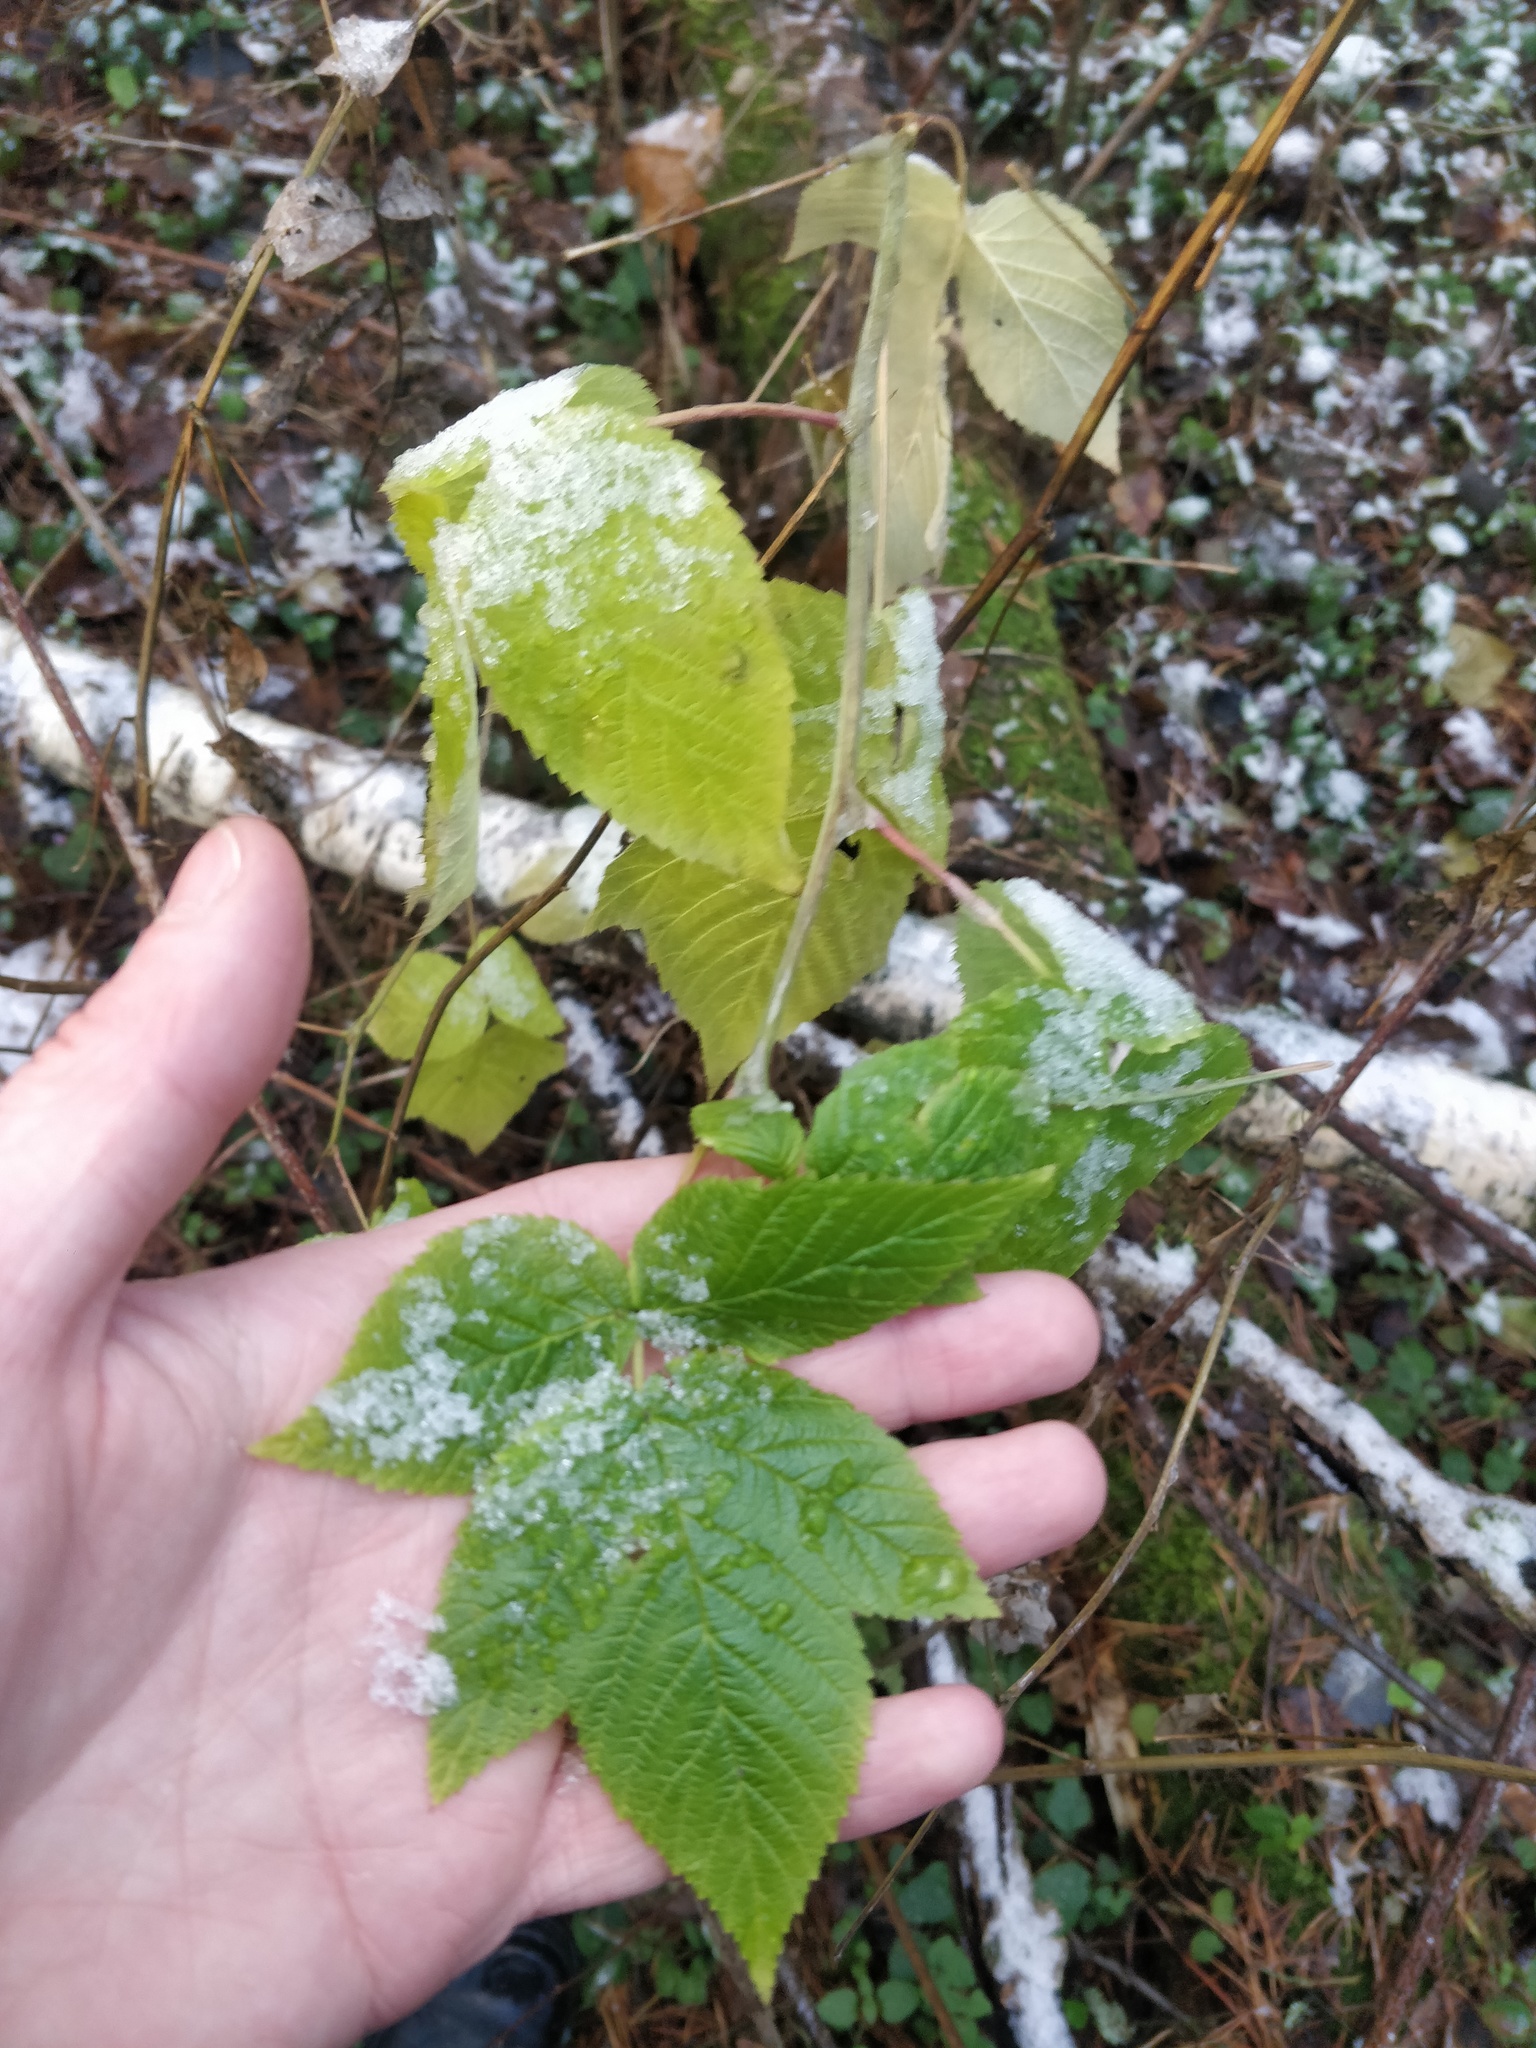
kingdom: Plantae
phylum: Tracheophyta
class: Magnoliopsida
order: Rosales
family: Rosaceae
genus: Rubus
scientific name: Rubus idaeus
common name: Raspberry
